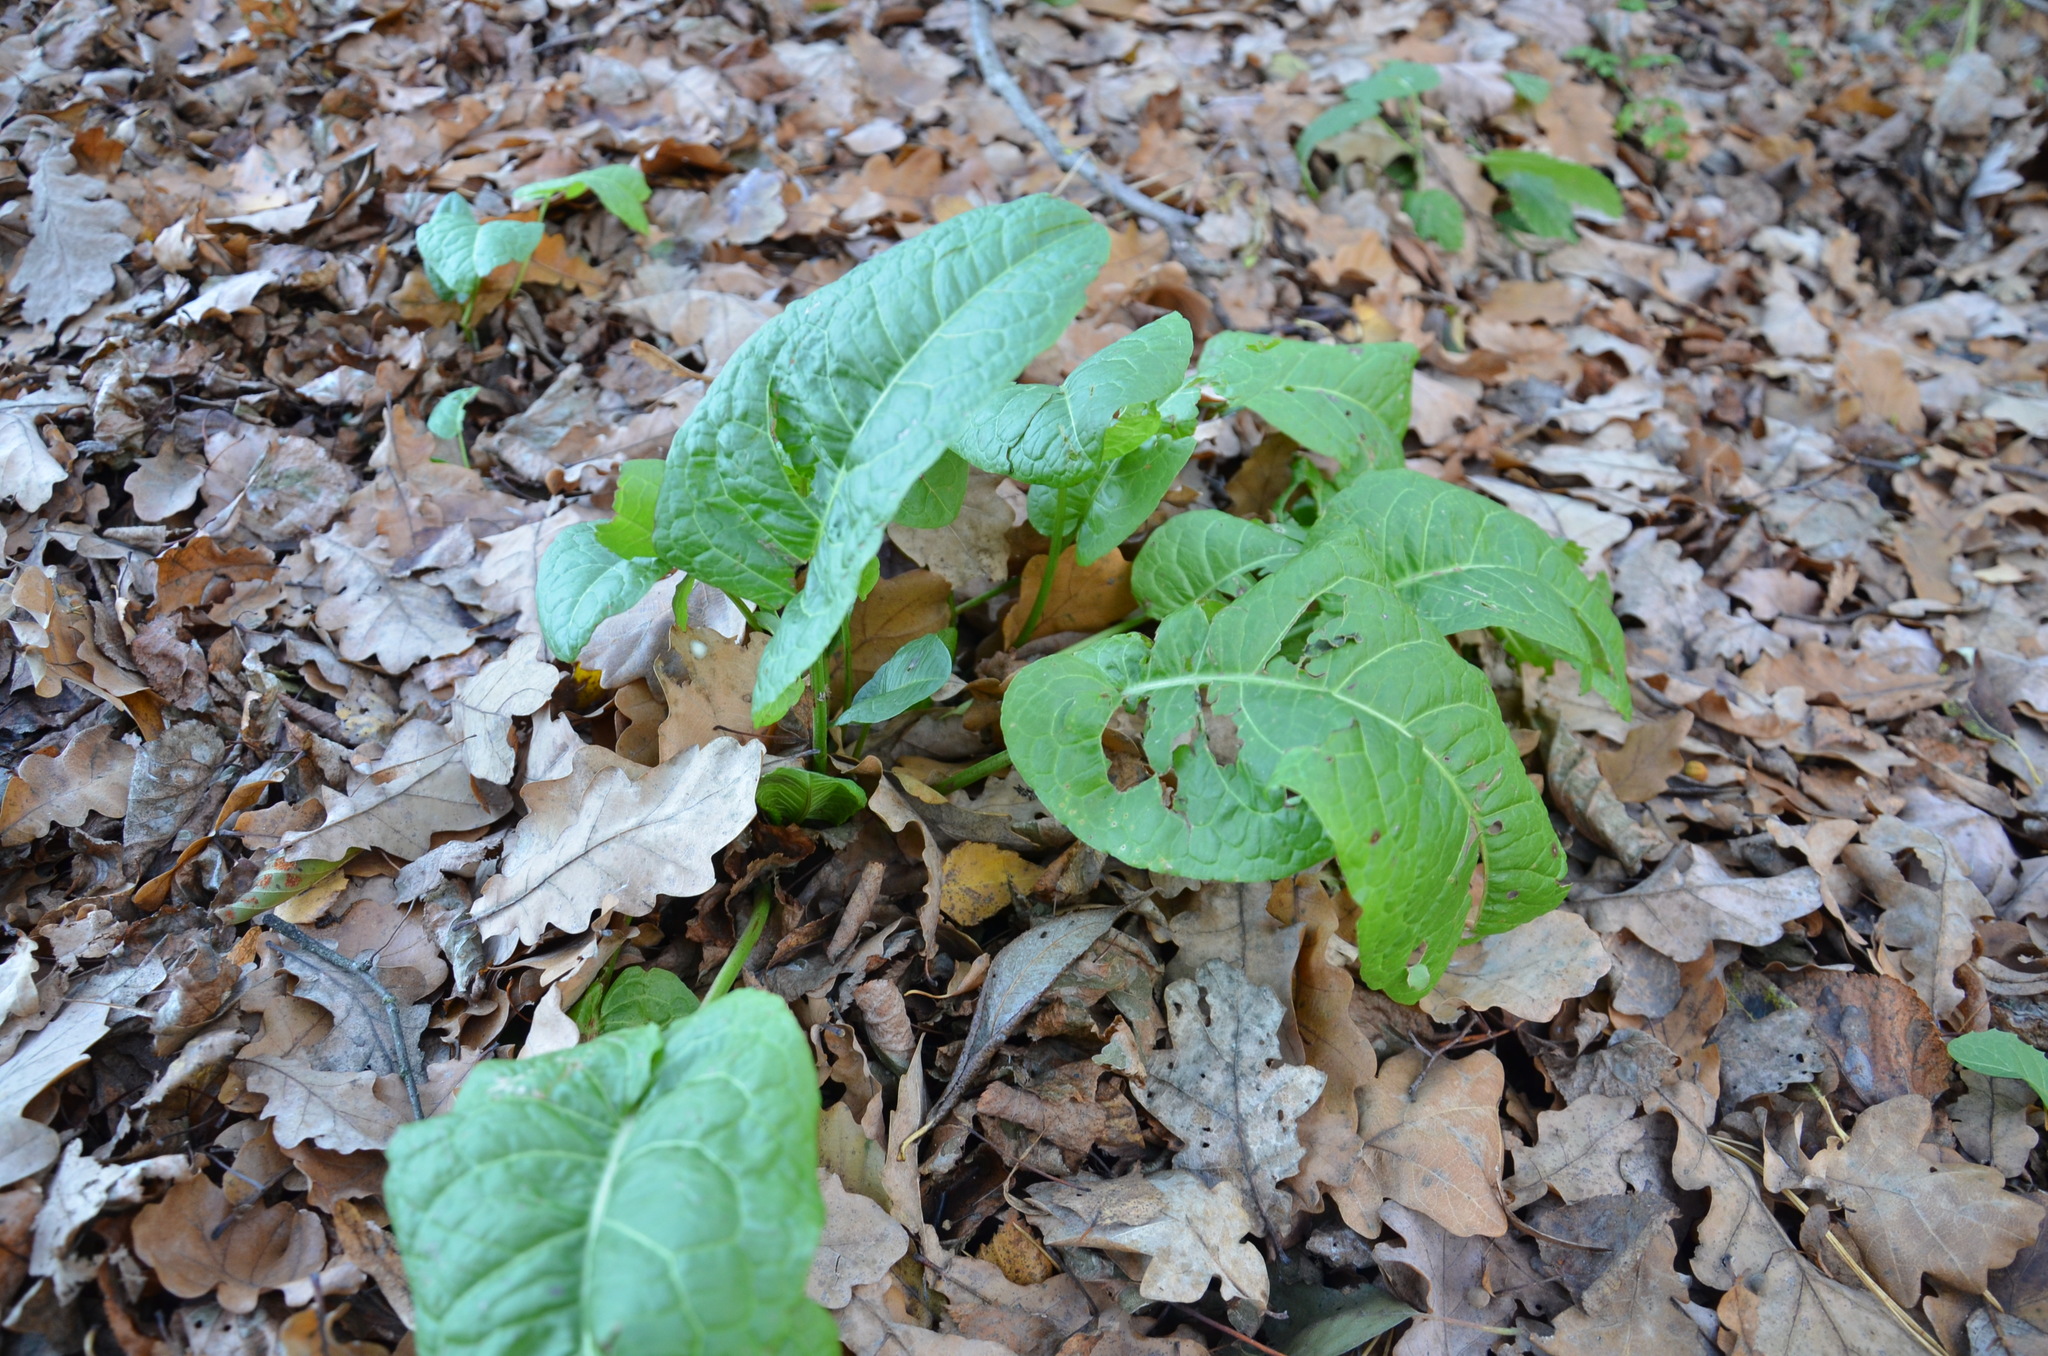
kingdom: Plantae
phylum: Tracheophyta
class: Magnoliopsida
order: Caryophyllales
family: Polygonaceae
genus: Rumex
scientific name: Rumex obtusifolius
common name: Bitter dock
